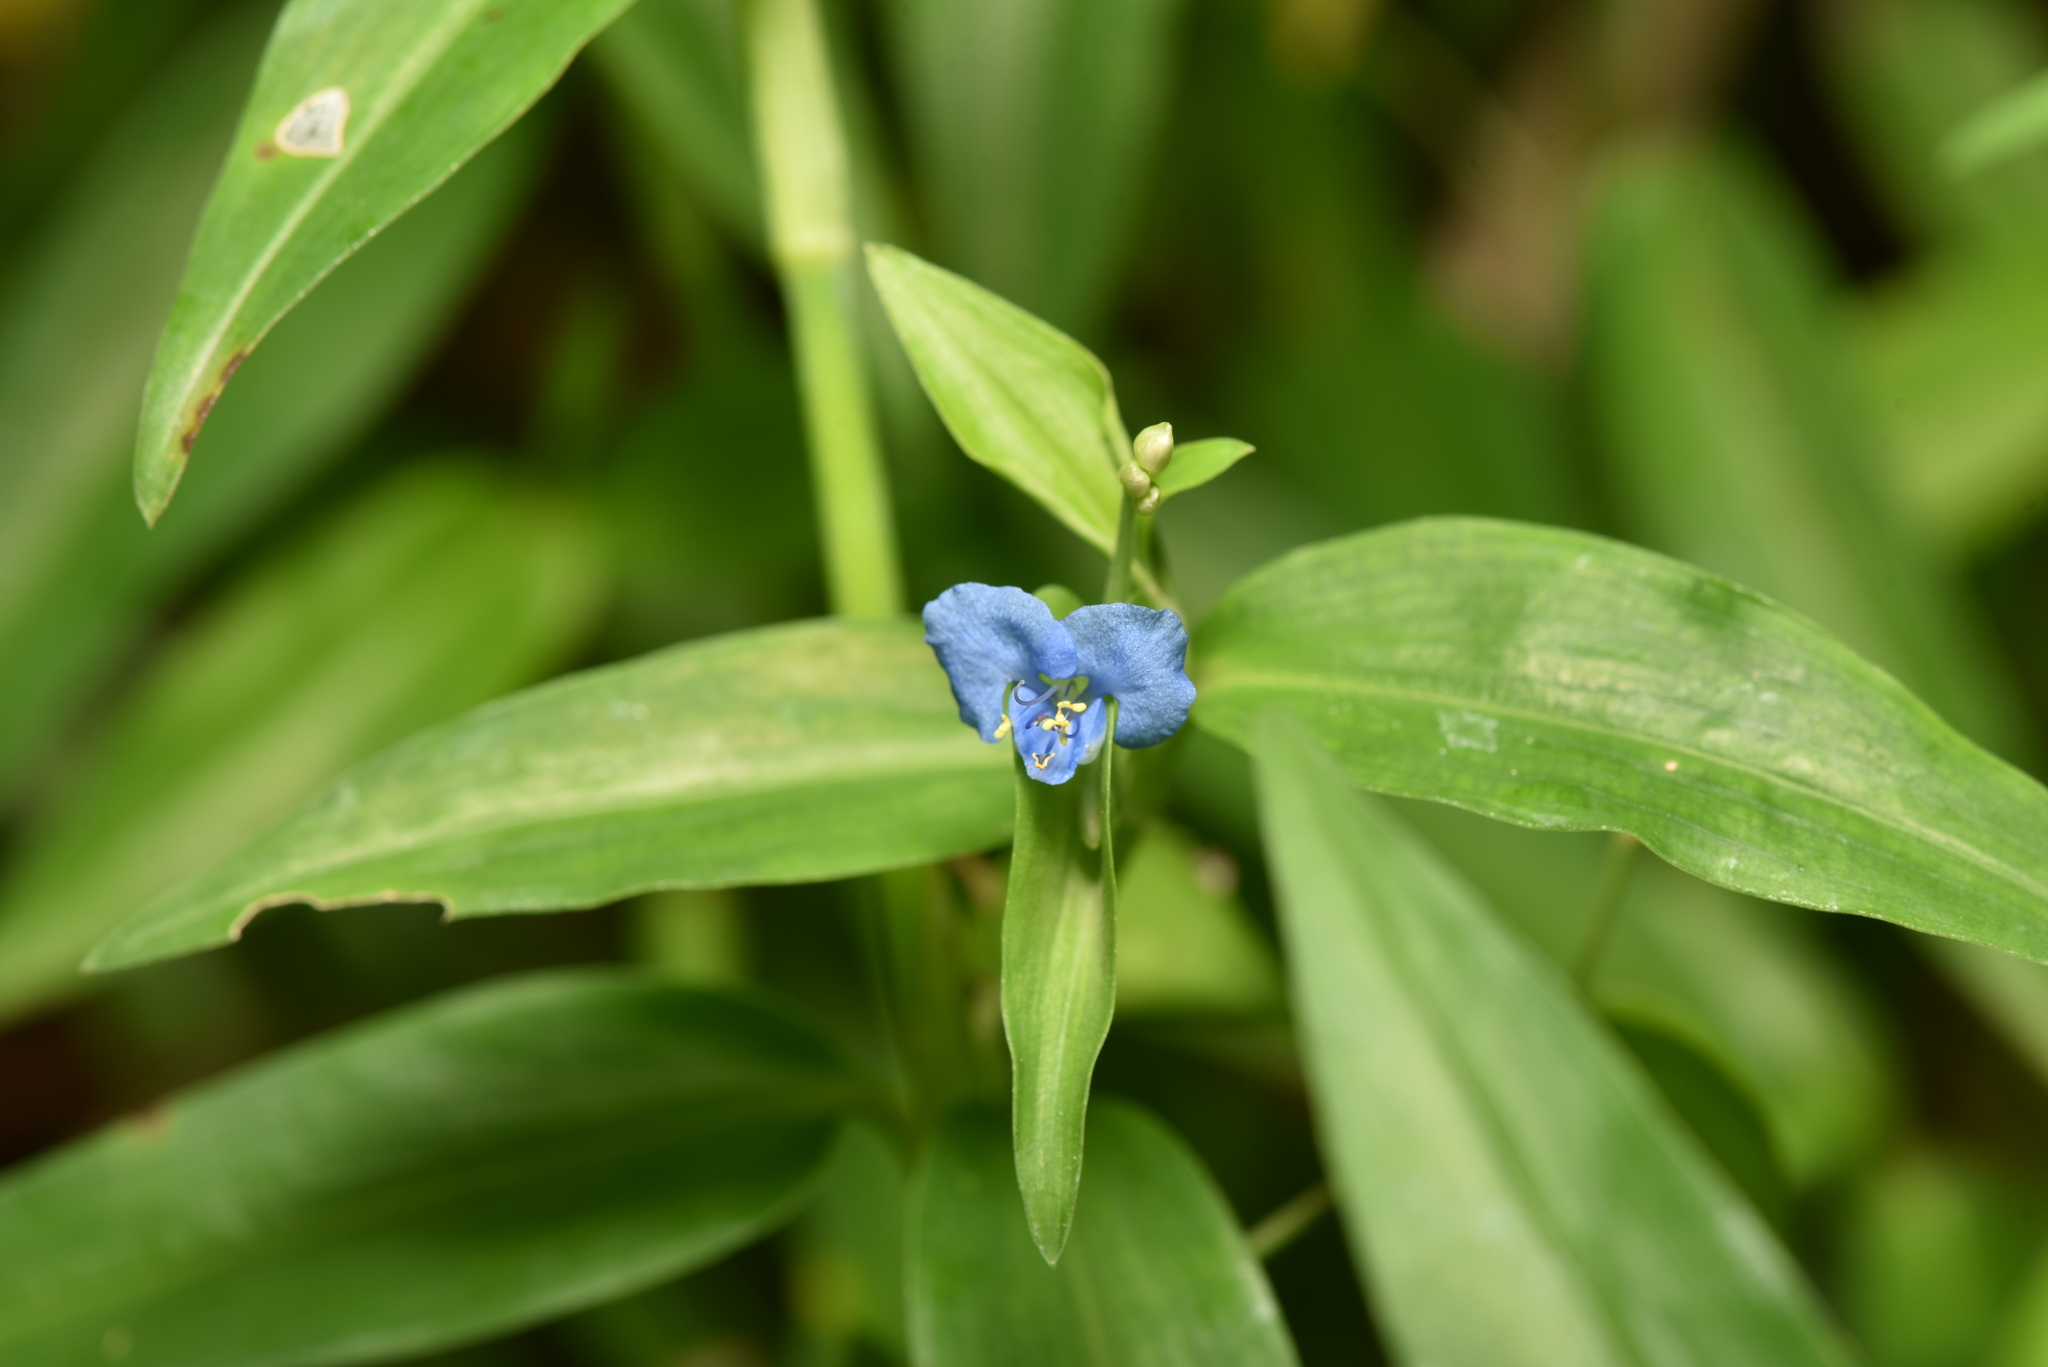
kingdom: Plantae
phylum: Tracheophyta
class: Liliopsida
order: Commelinales
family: Commelinaceae
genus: Commelina
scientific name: Commelina diffusa
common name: Climbing dayflower
